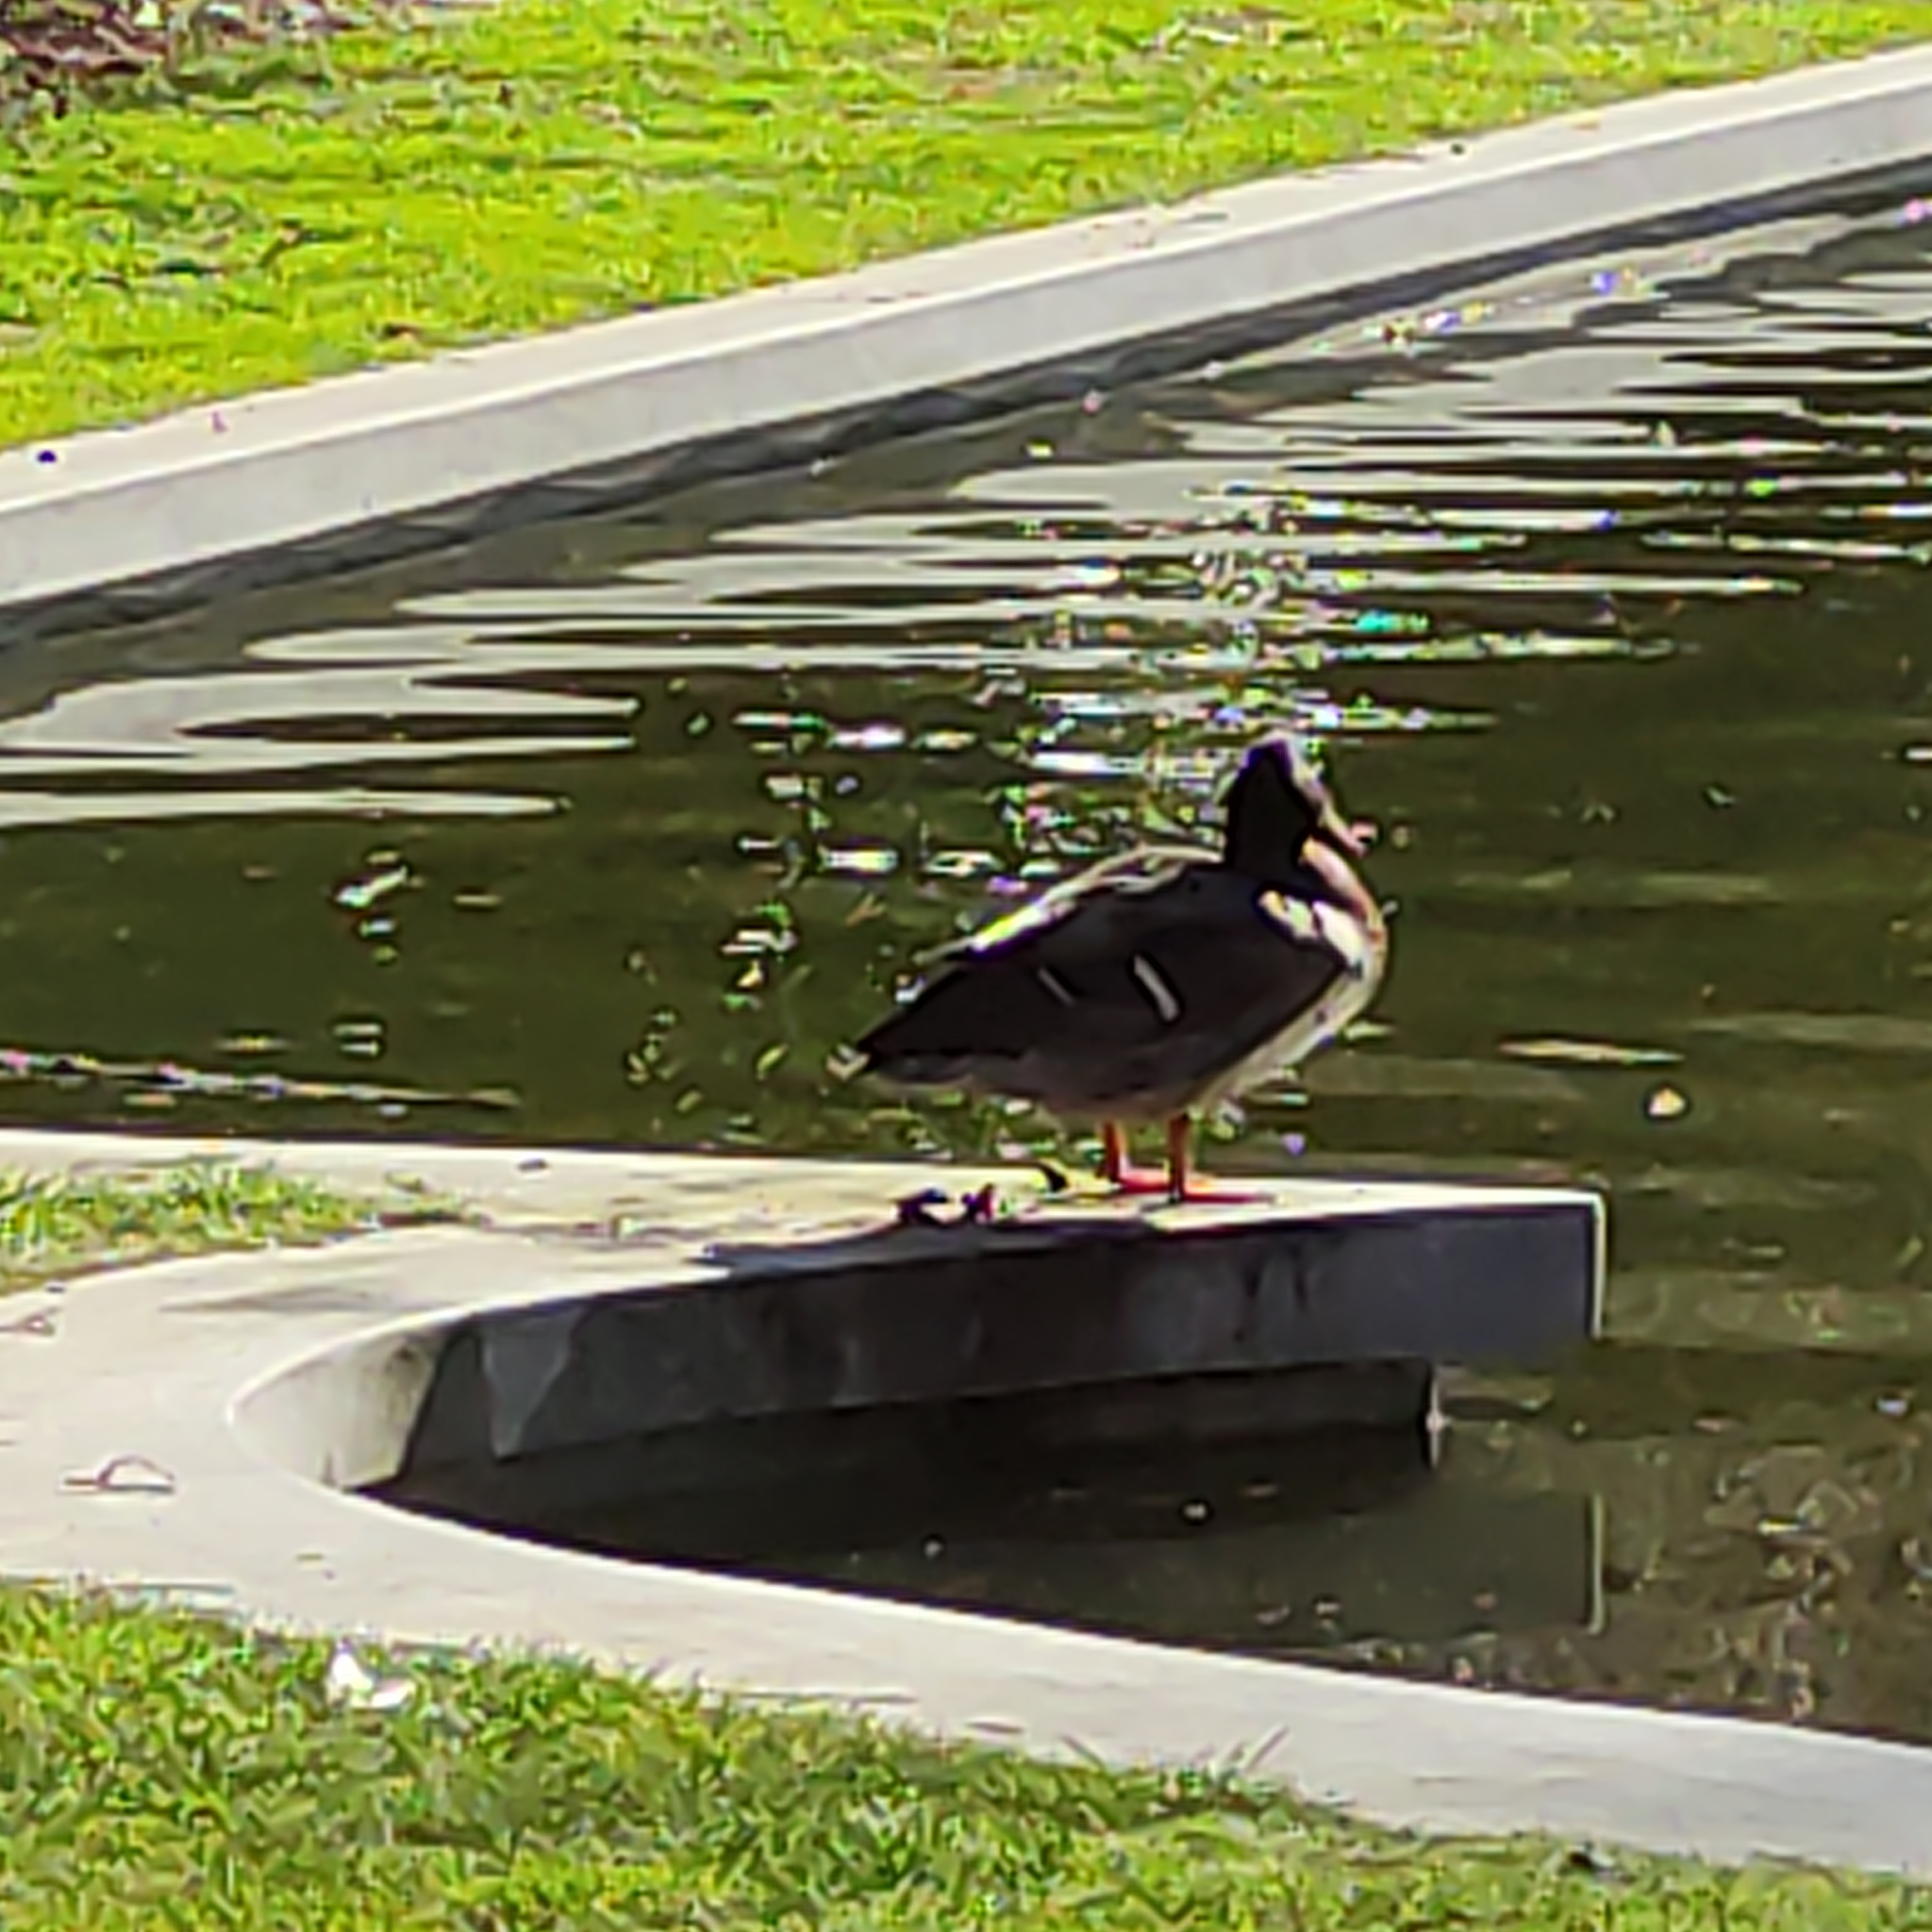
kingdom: Animalia
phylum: Chordata
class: Aves
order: Anseriformes
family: Anatidae
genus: Anas
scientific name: Anas platyrhynchos
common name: Mallard
